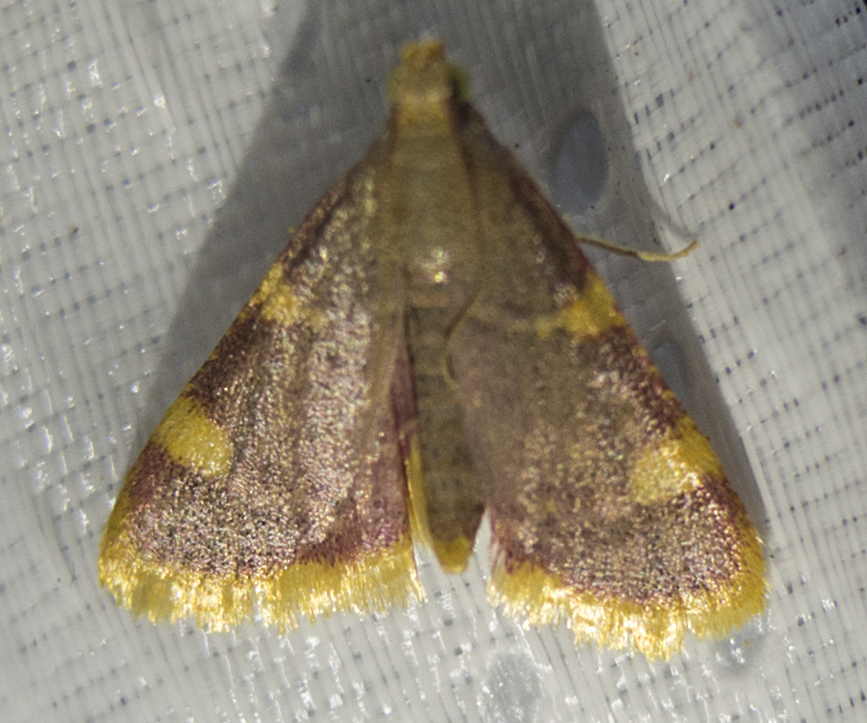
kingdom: Animalia
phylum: Arthropoda
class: Insecta
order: Lepidoptera
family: Pyralidae
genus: Hypsopygia
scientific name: Hypsopygia costalis
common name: Gold triangle
